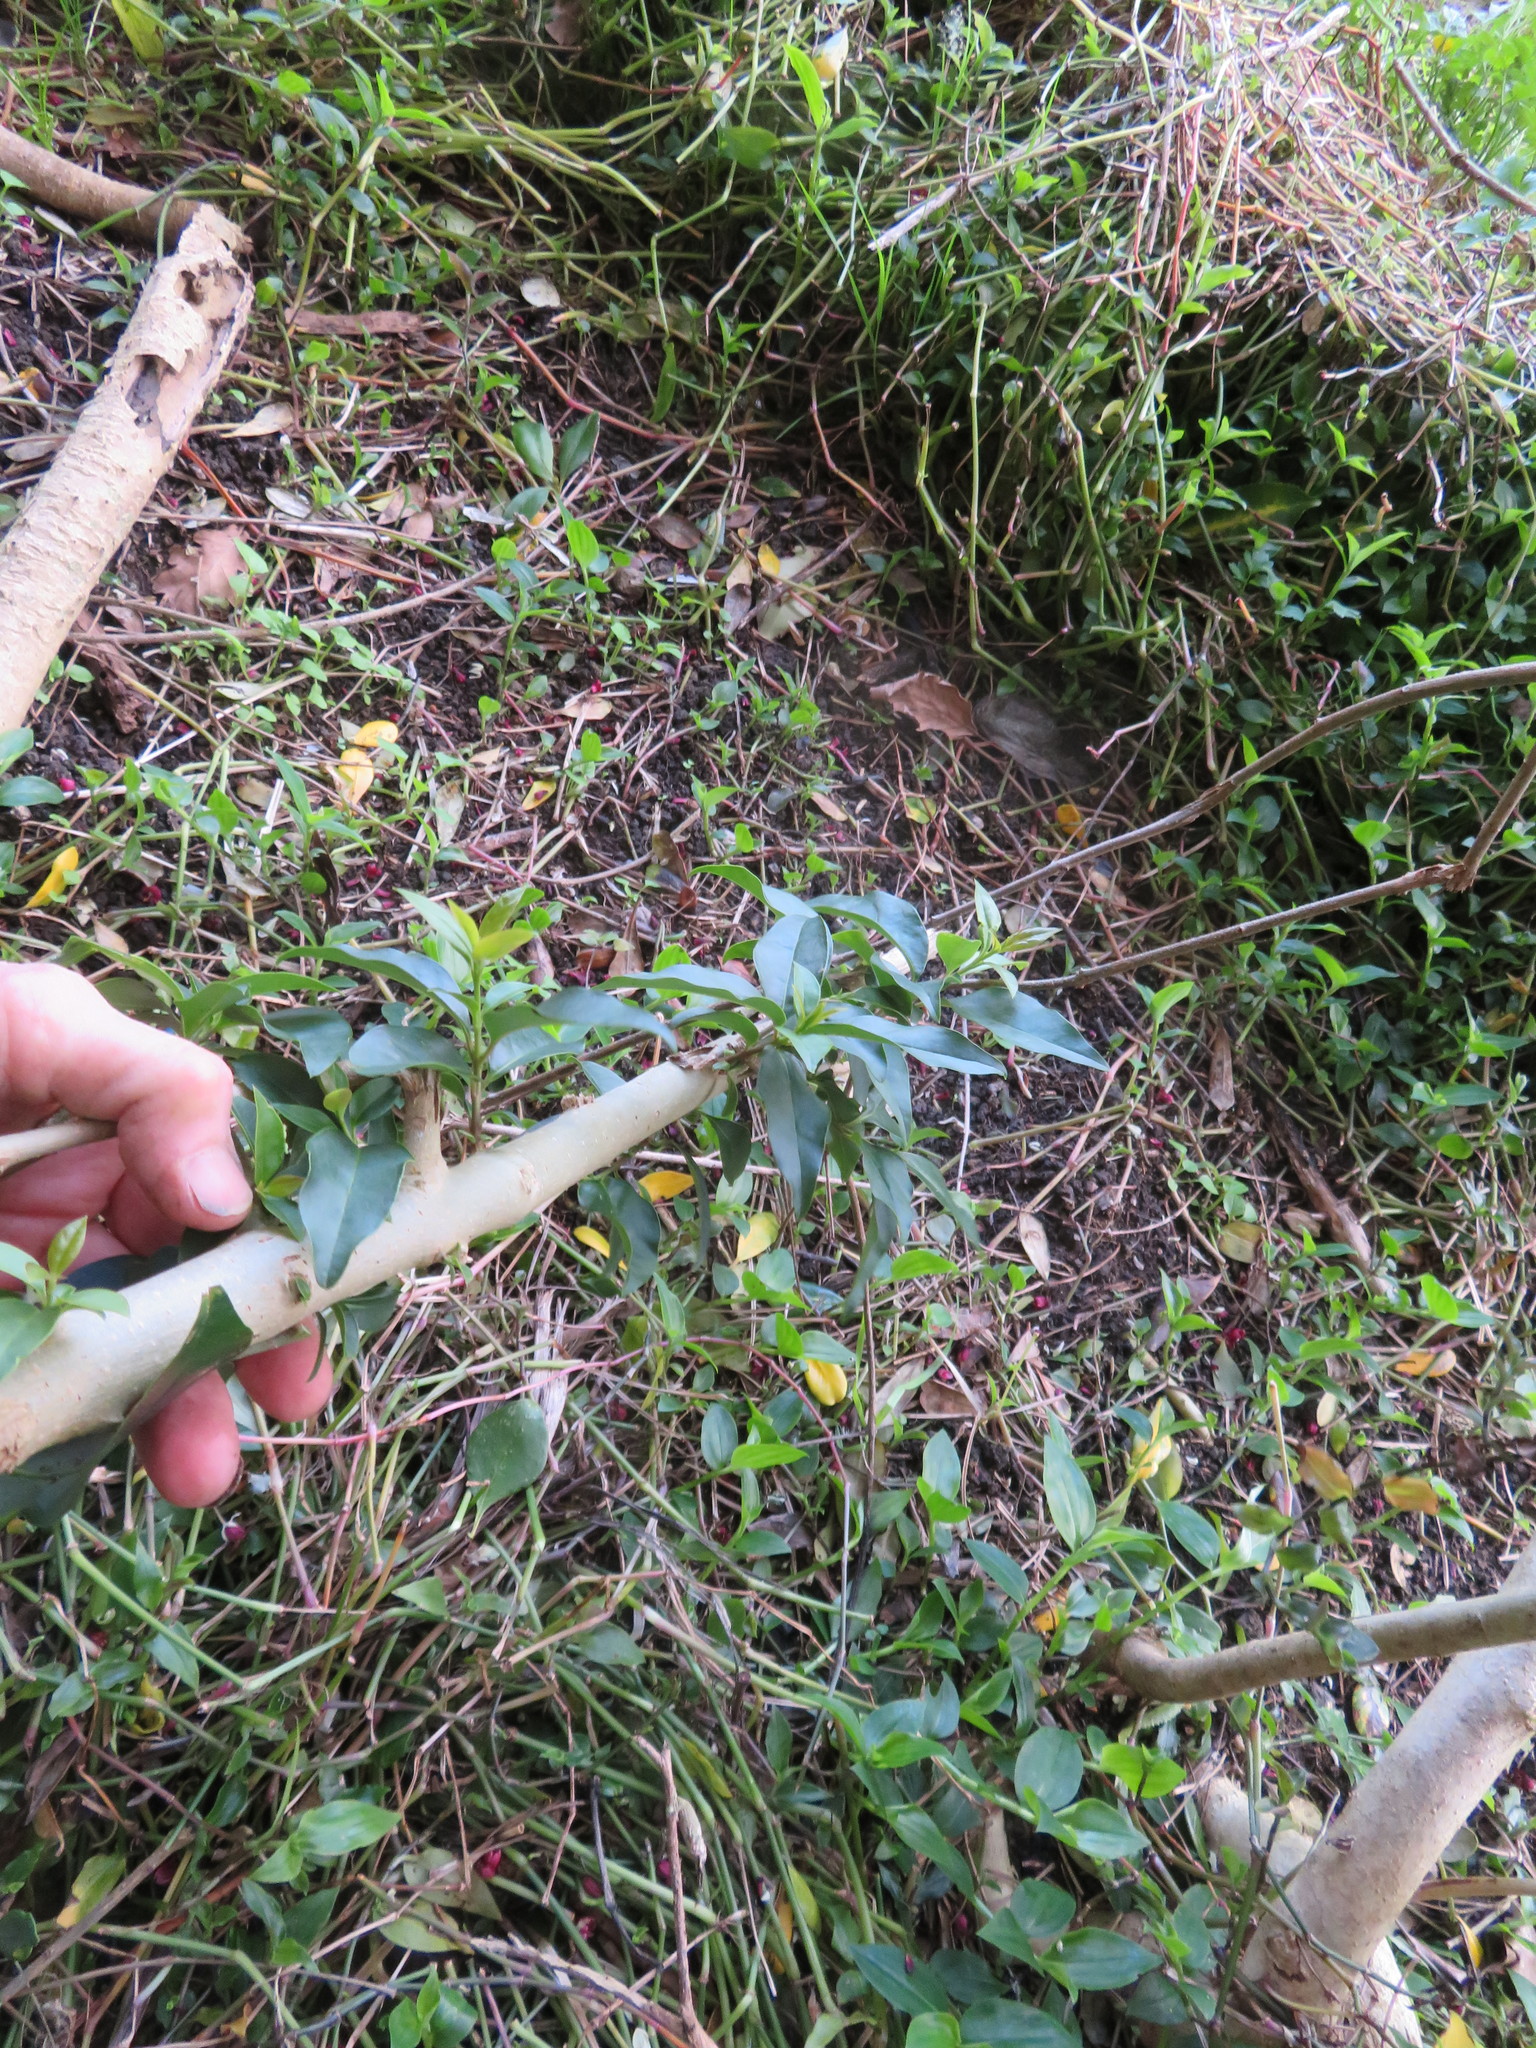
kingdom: Plantae
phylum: Tracheophyta
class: Magnoliopsida
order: Lamiales
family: Oleaceae
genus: Ligustrum
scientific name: Ligustrum lucidum
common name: Glossy privet
